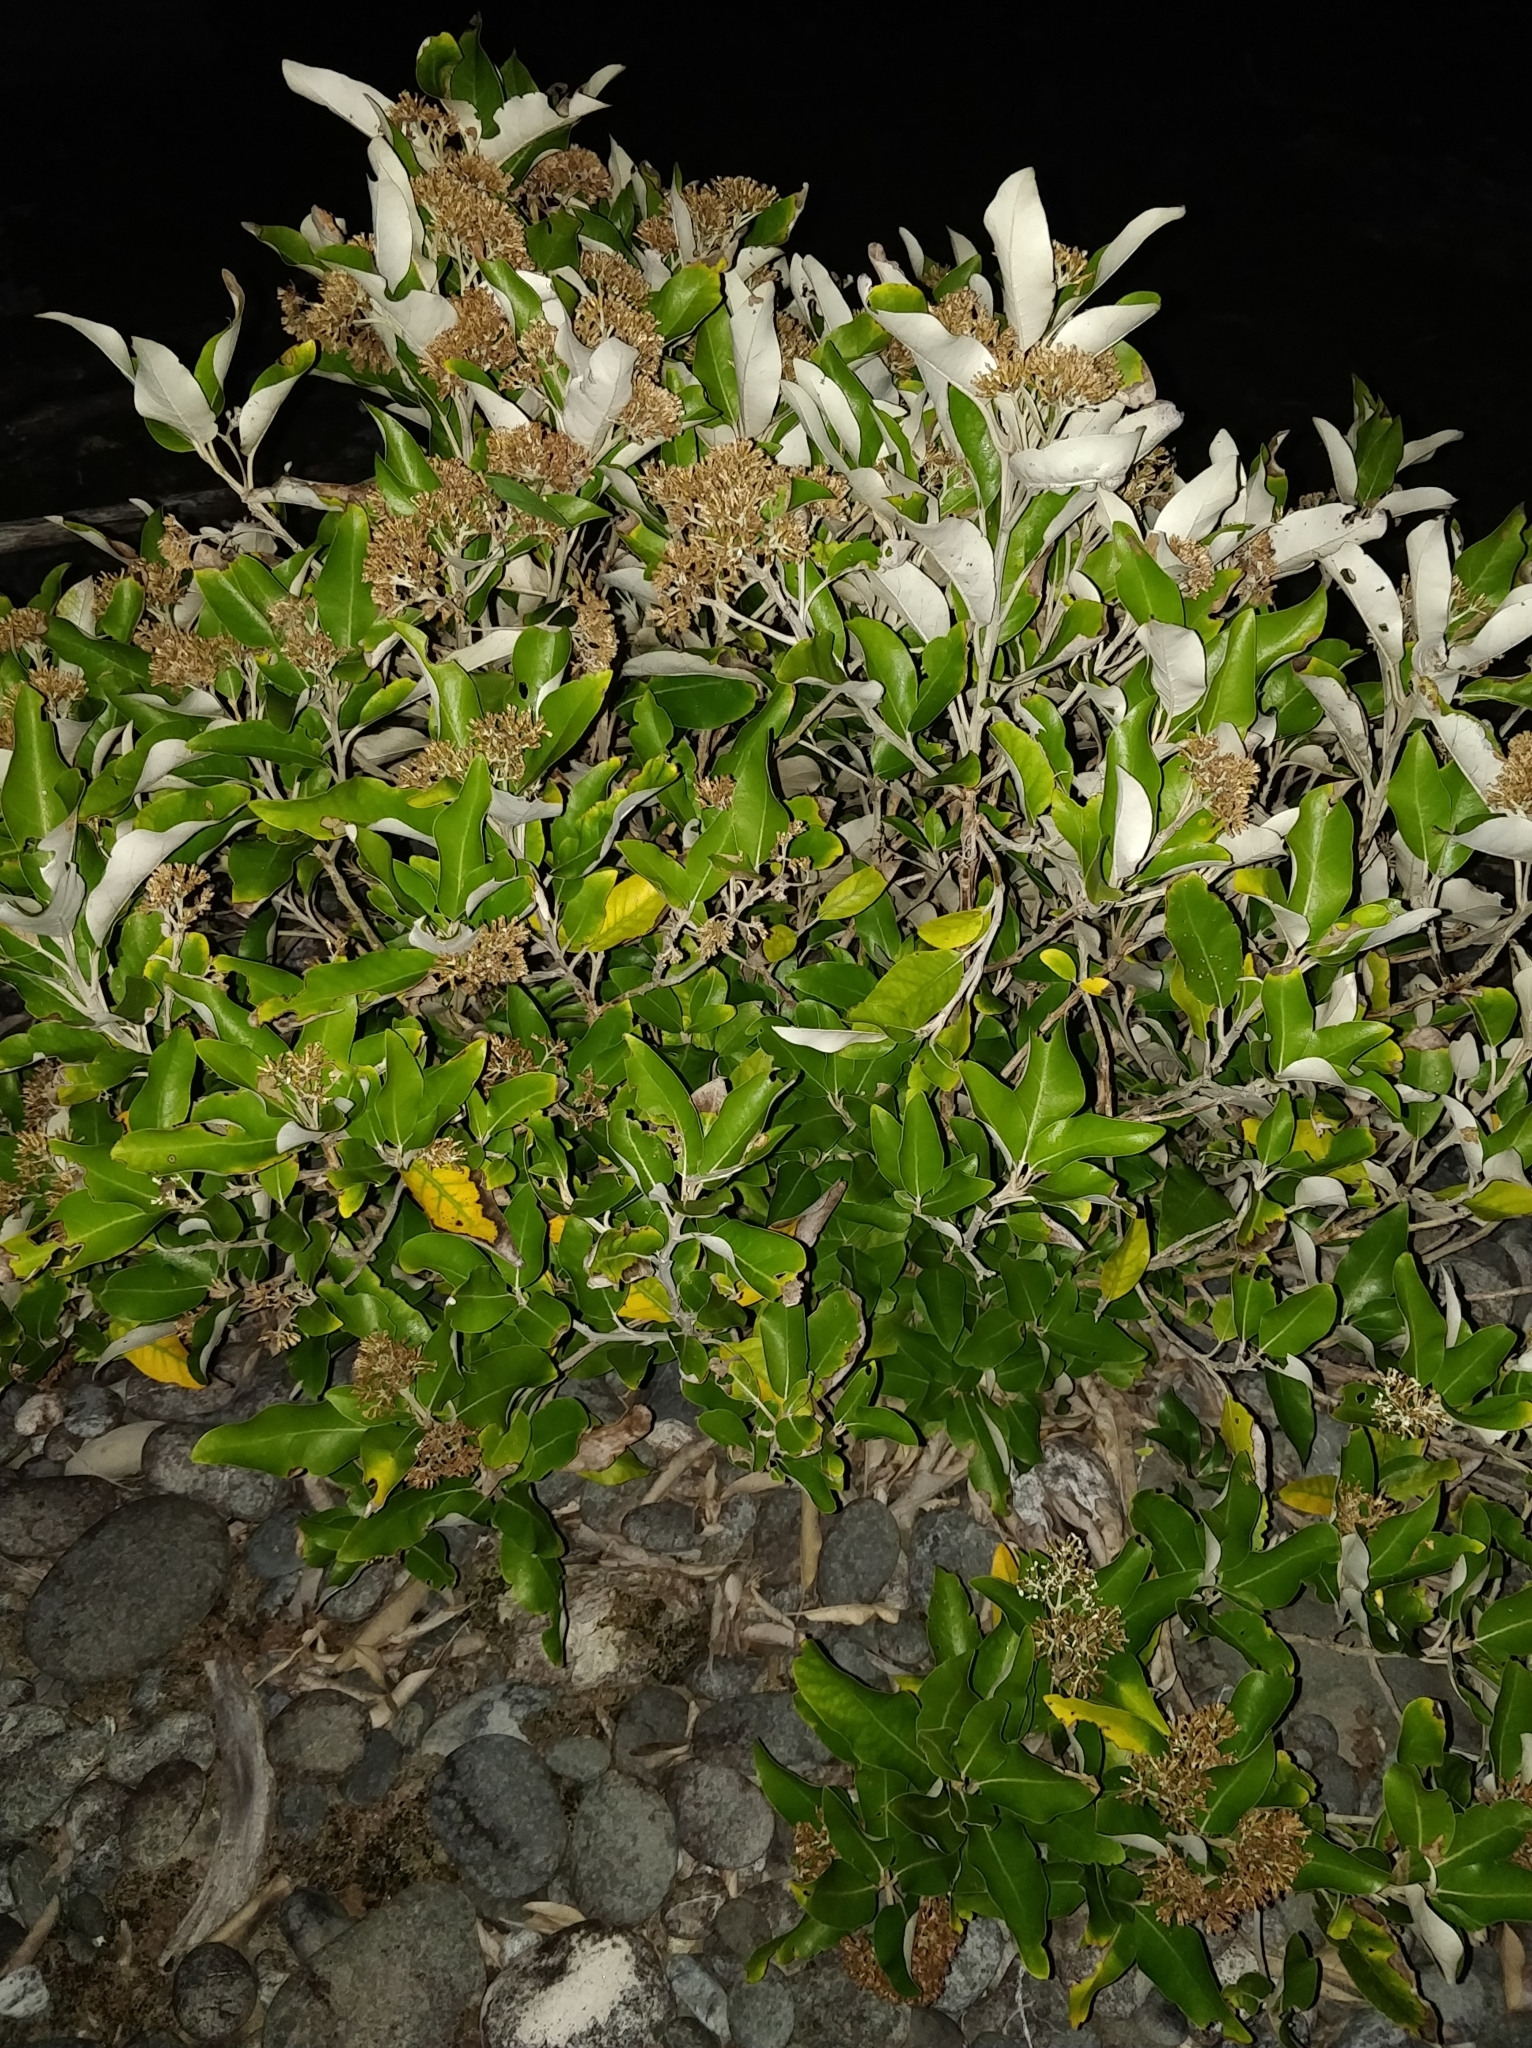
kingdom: Plantae
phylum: Tracheophyta
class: Magnoliopsida
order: Asterales
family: Asteraceae
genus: Olearia
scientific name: Olearia avicenniifolia
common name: Mangrove-leaf daisybush
